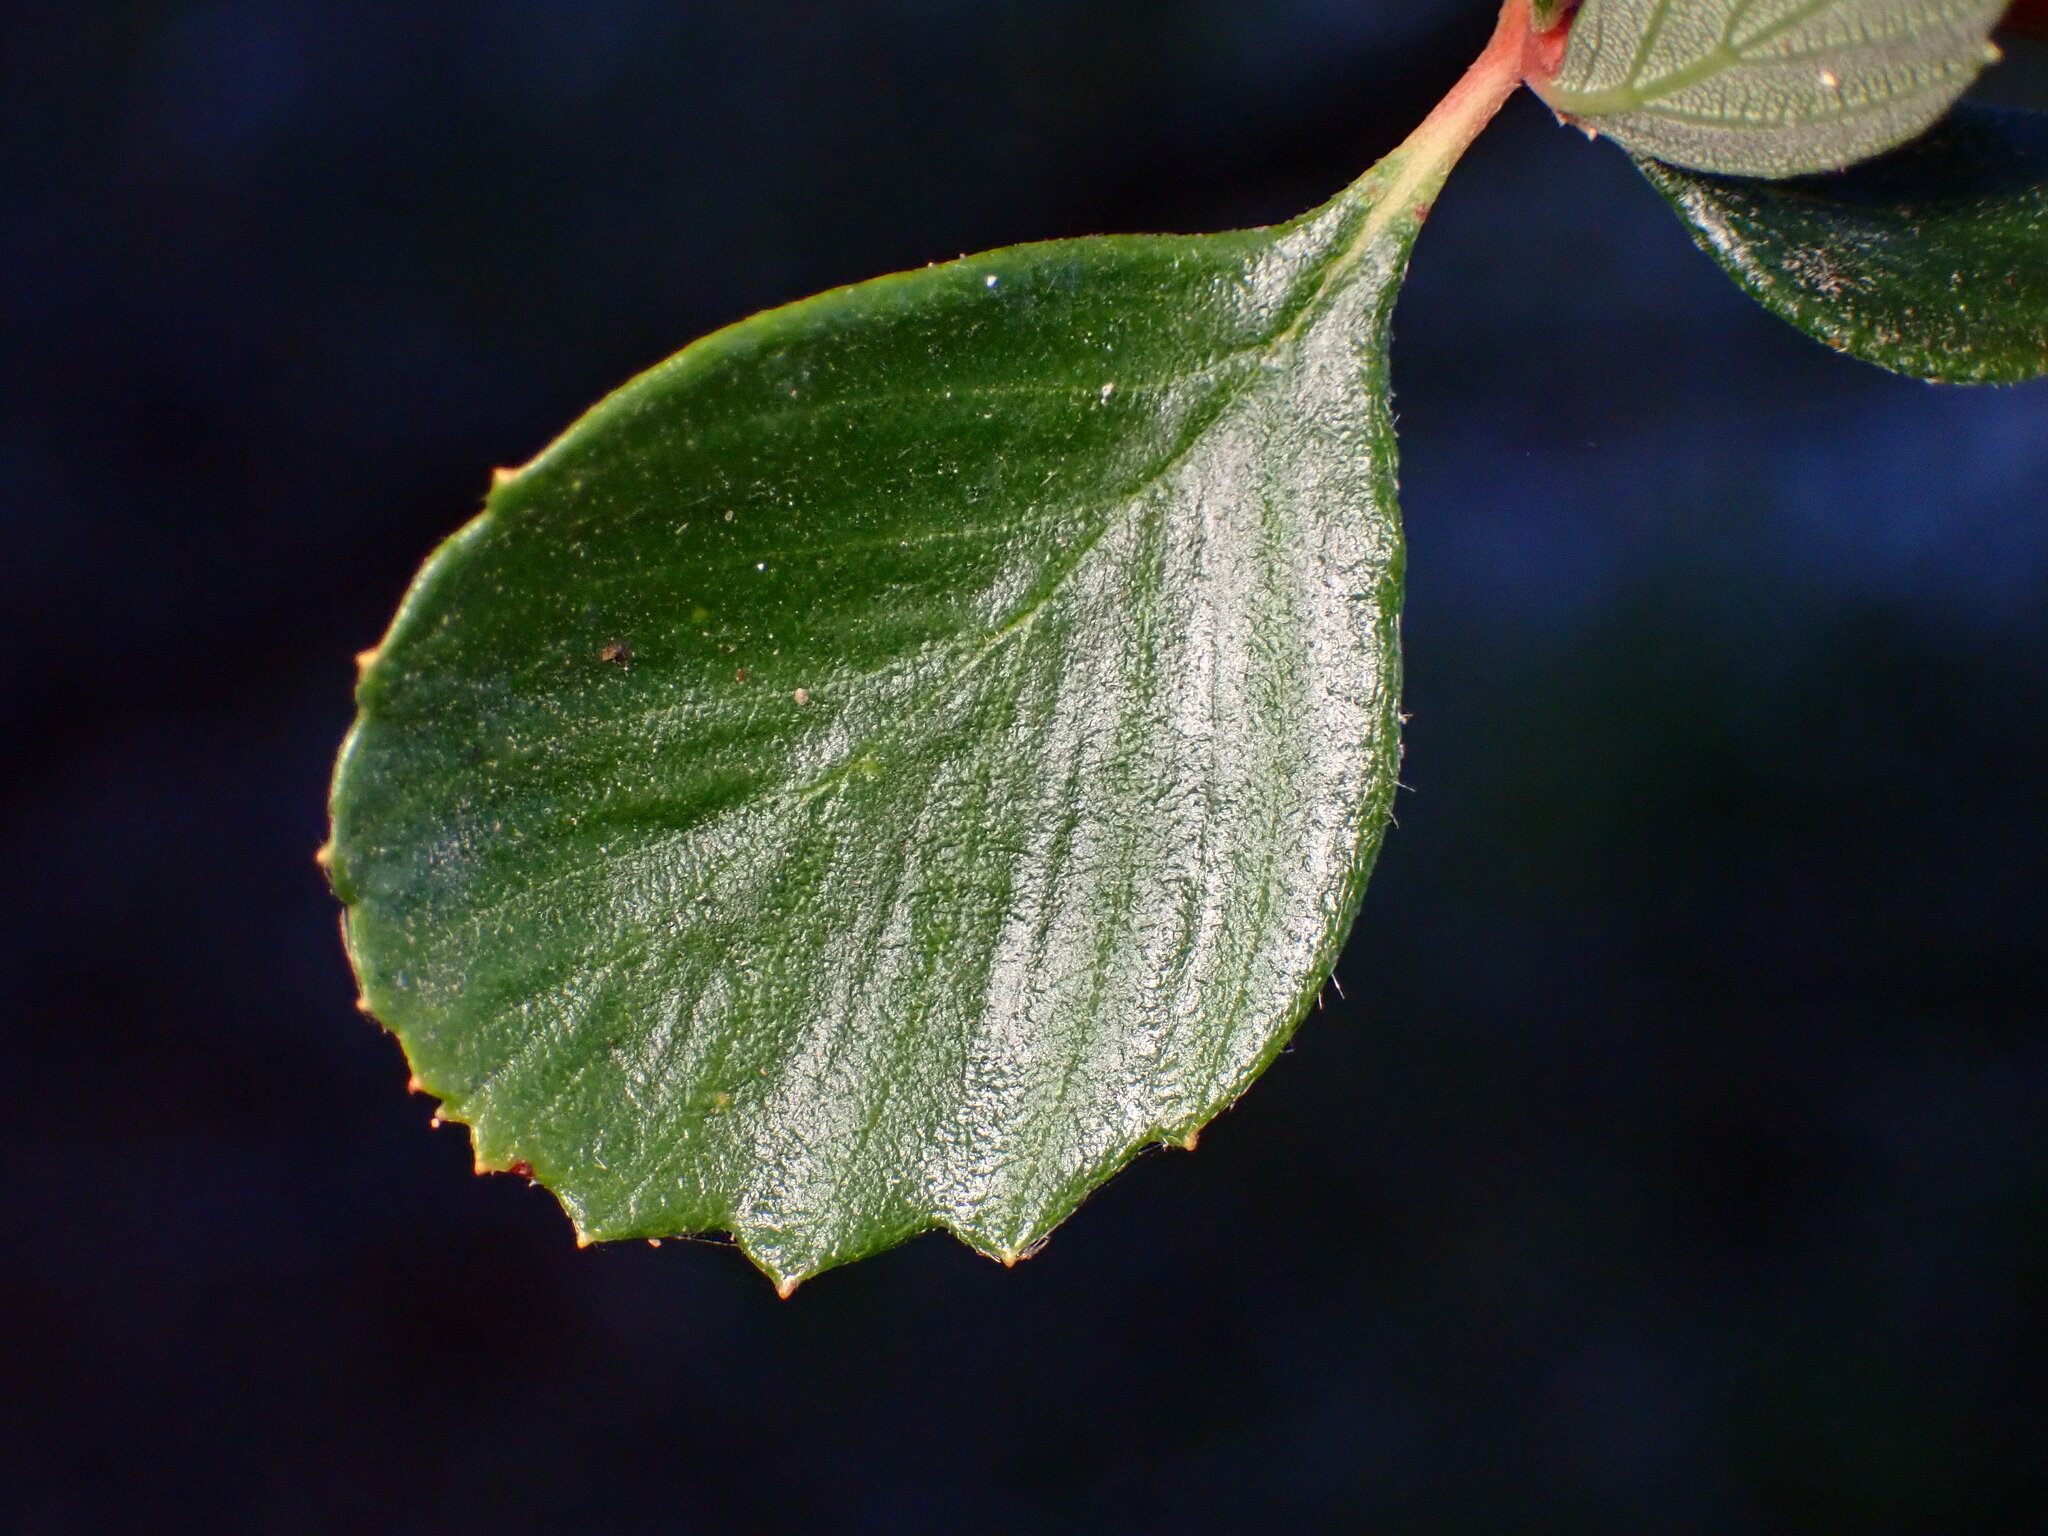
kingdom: Plantae
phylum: Tracheophyta
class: Magnoliopsida
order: Rosales
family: Rosaceae
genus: Cercocarpus
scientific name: Cercocarpus betuloides
